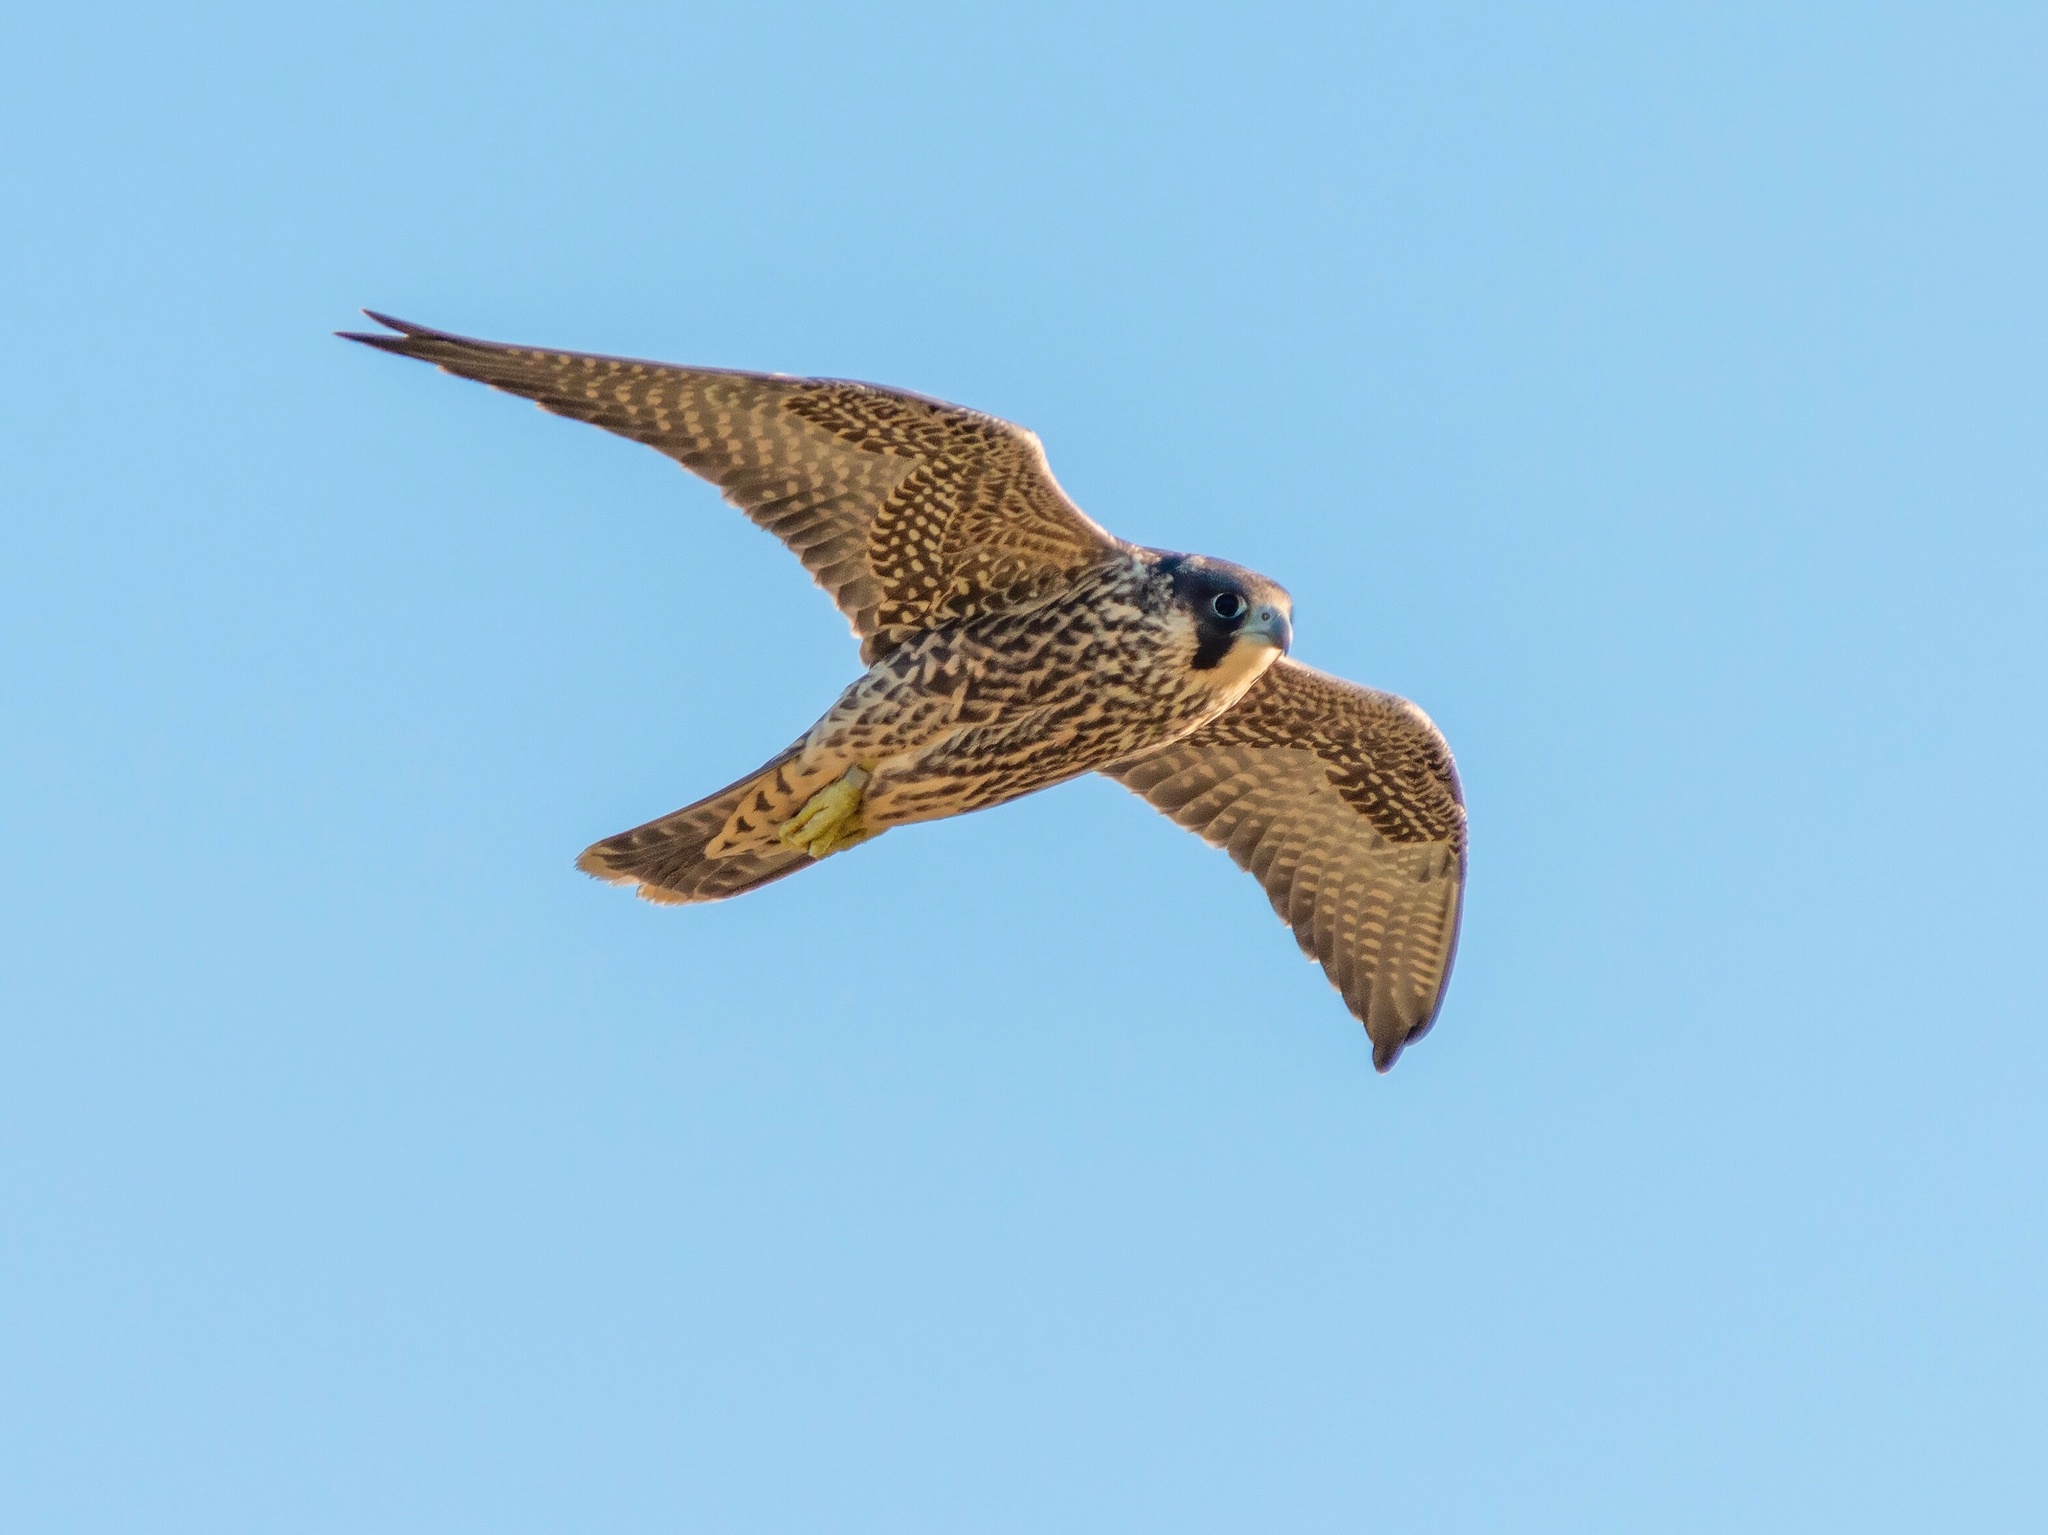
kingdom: Animalia
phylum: Chordata
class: Aves
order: Falconiformes
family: Falconidae
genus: Falco
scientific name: Falco peregrinus
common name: Peregrine falcon
